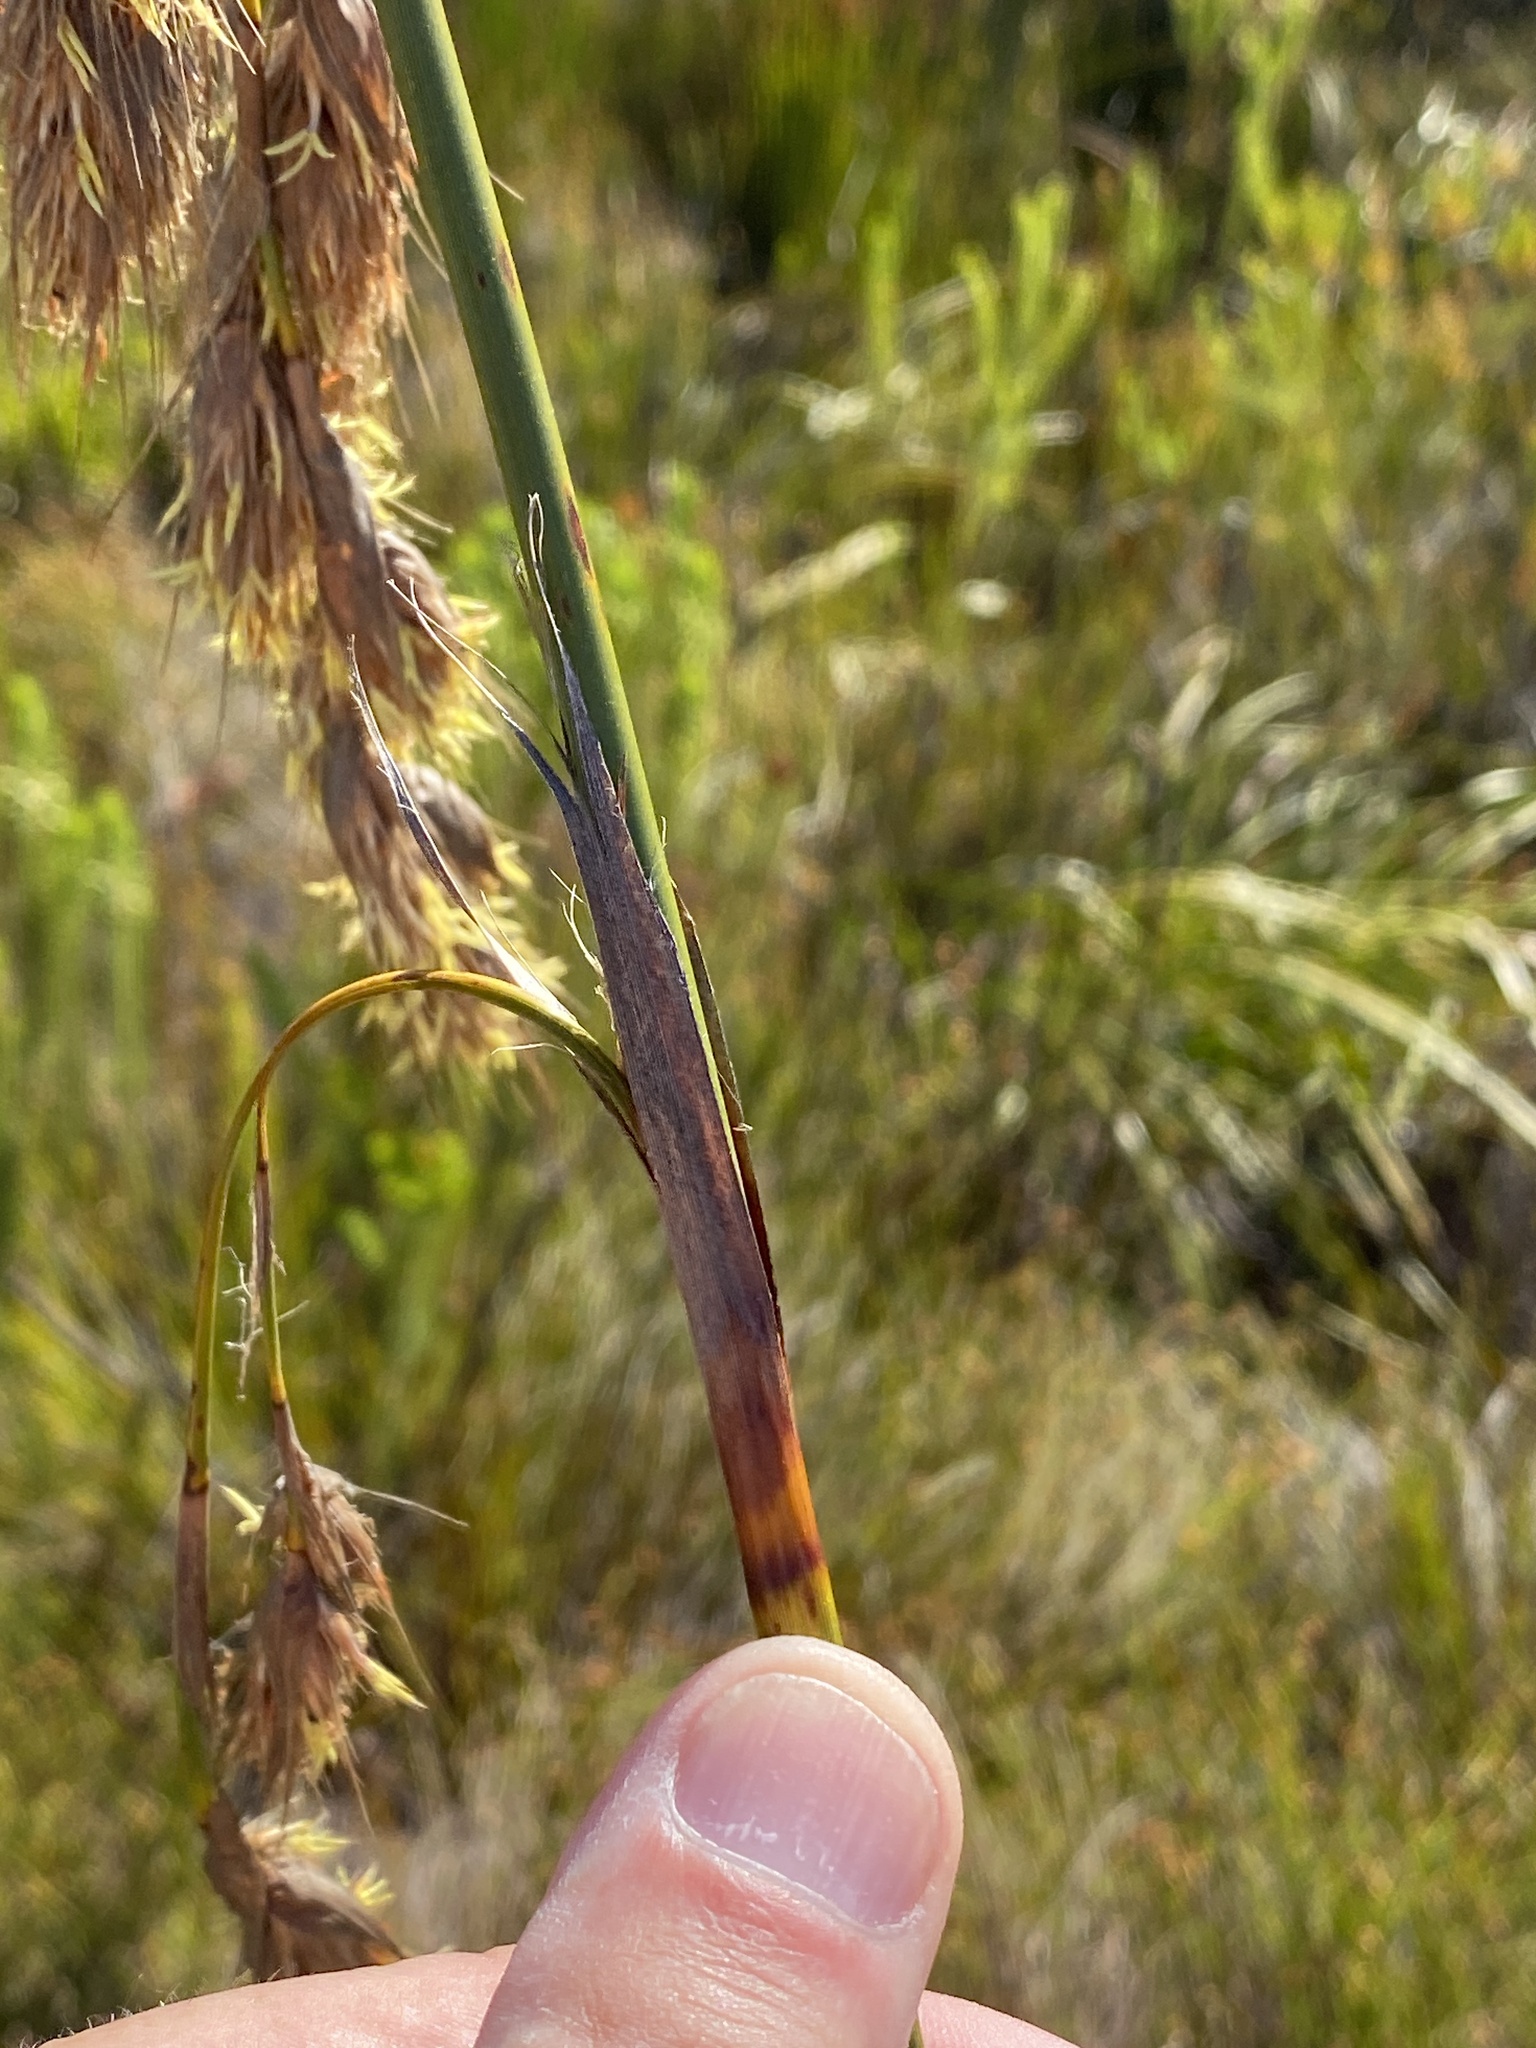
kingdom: Plantae
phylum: Tracheophyta
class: Liliopsida
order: Poales
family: Cyperaceae
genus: Tetraria
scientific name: Tetraria bromoides
